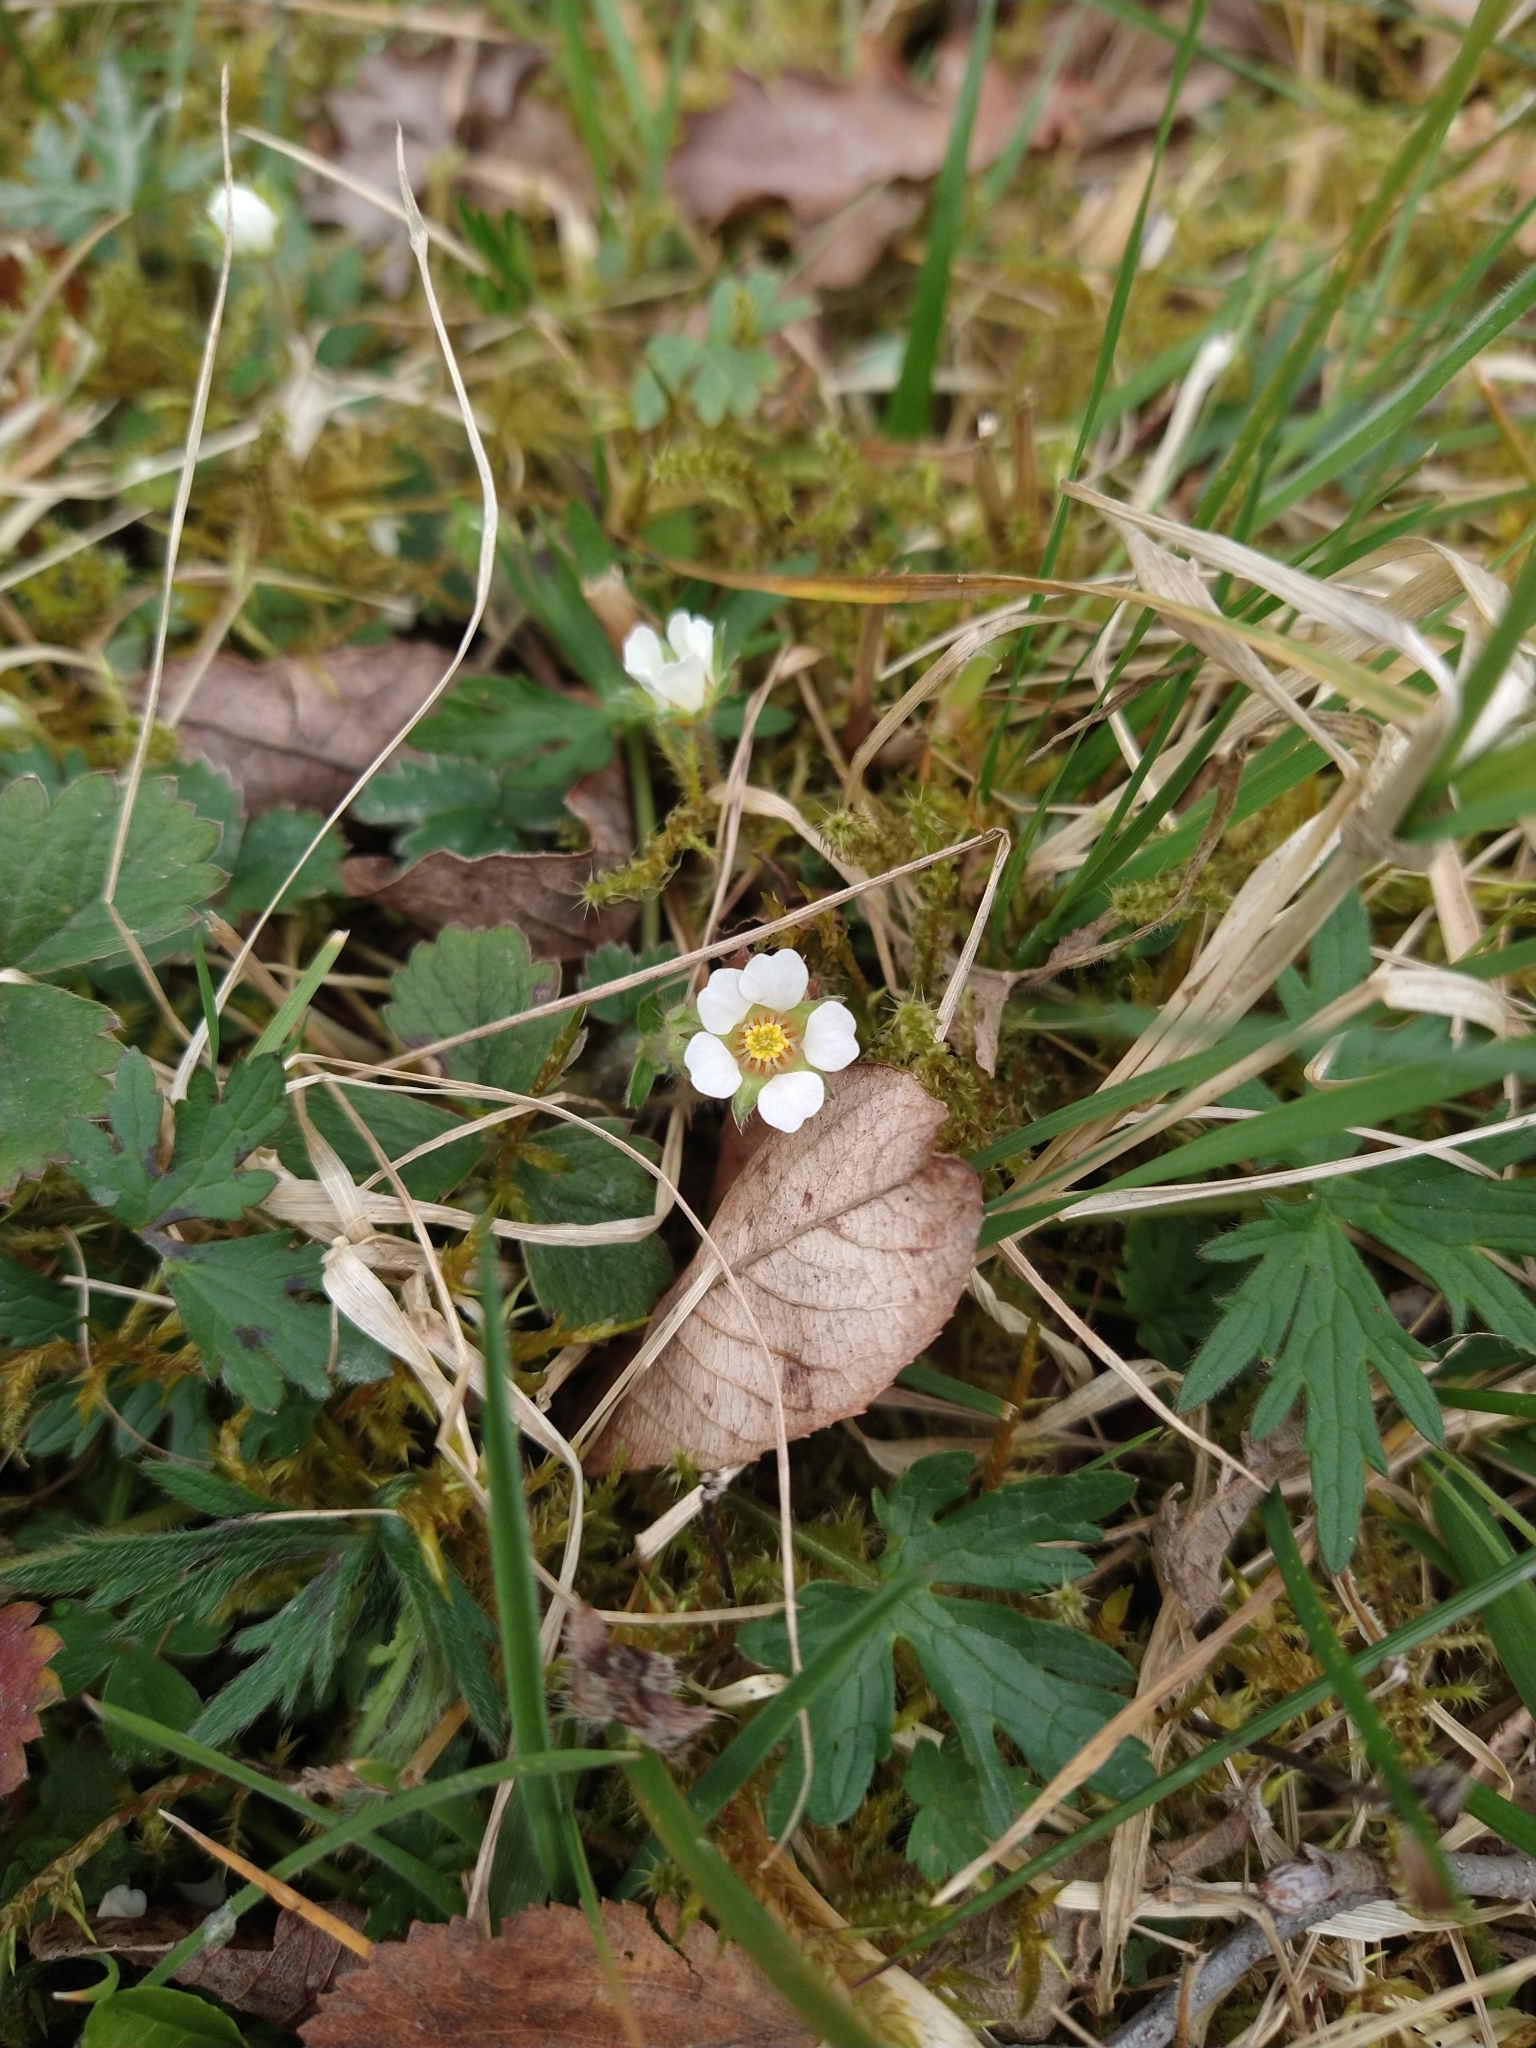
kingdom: Plantae
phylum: Tracheophyta
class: Magnoliopsida
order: Rosales
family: Rosaceae
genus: Potentilla
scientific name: Potentilla sterilis
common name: Barren strawberry
